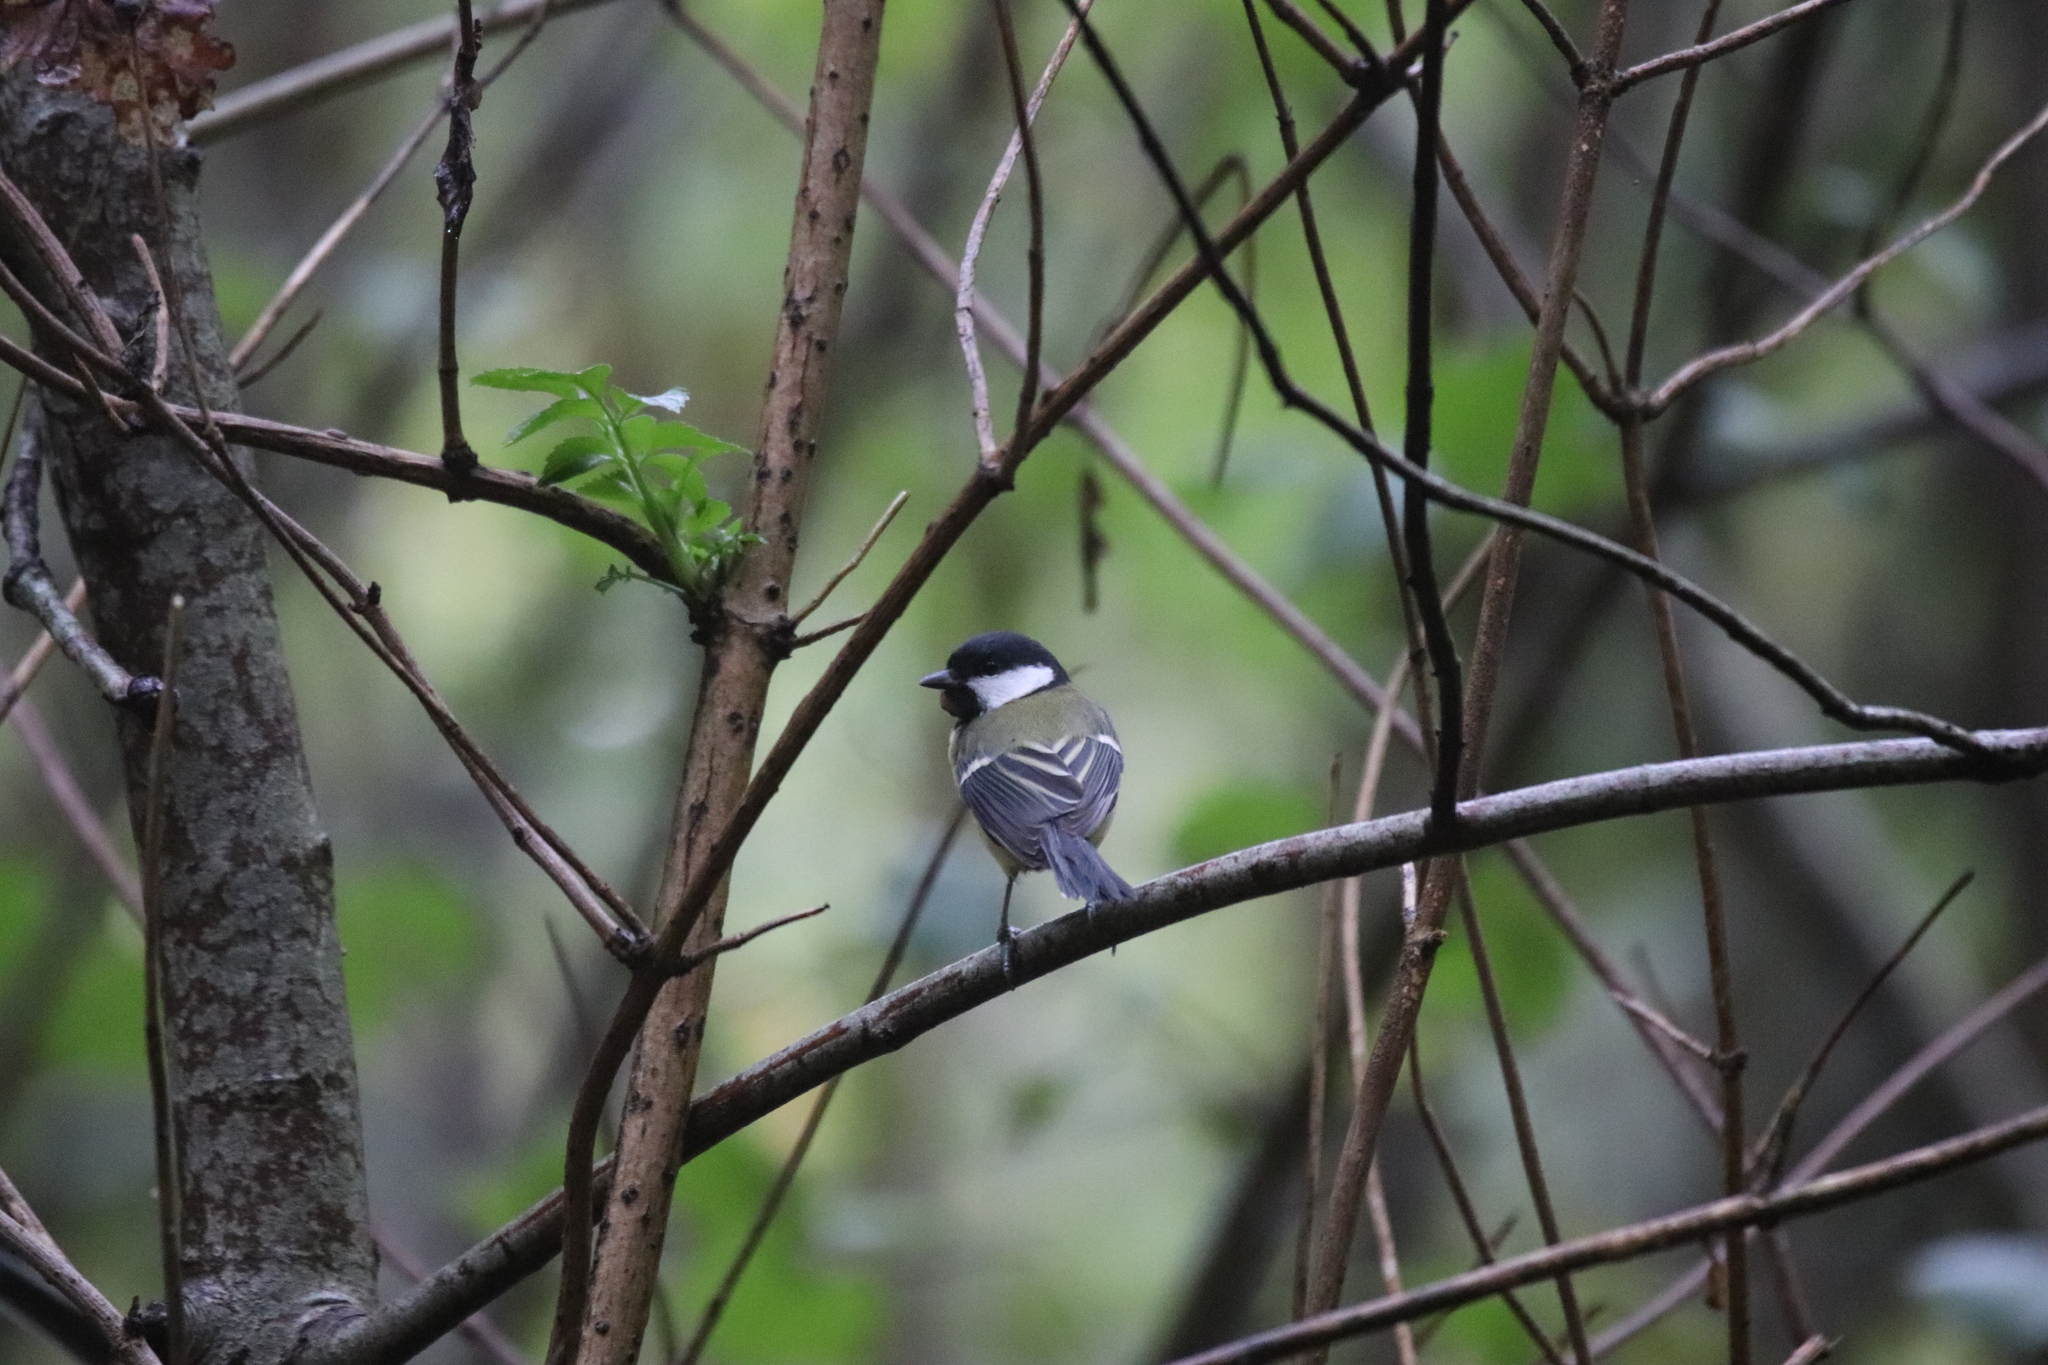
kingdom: Animalia
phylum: Chordata
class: Aves
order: Passeriformes
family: Paridae
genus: Parus
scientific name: Parus major
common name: Great tit
